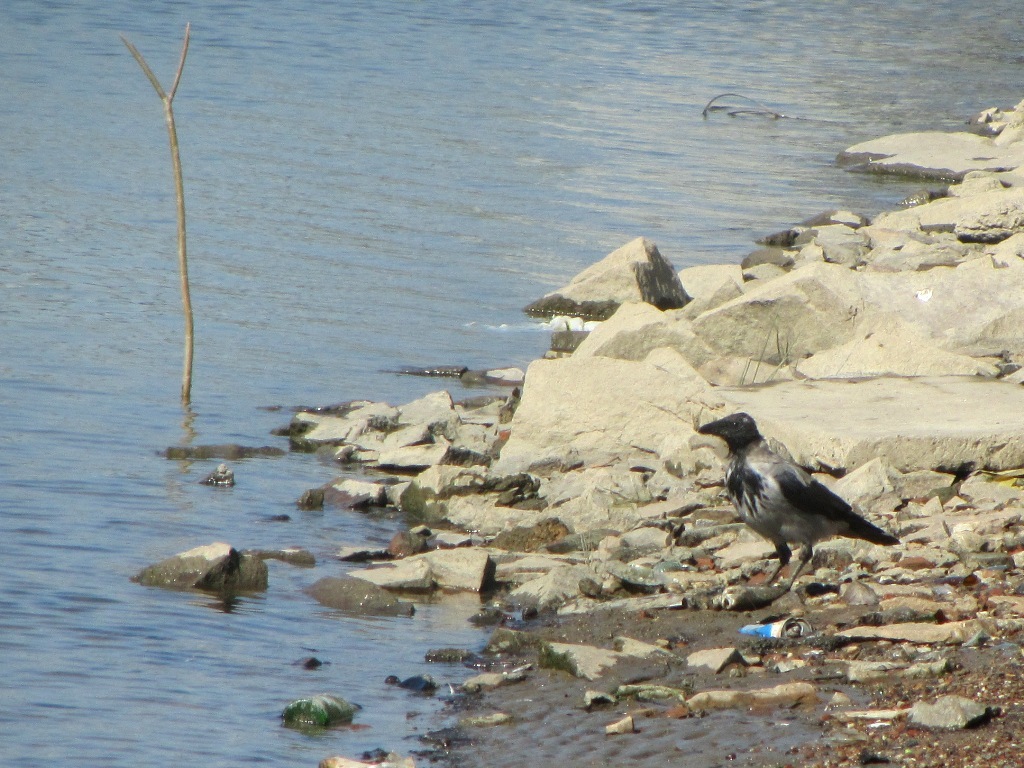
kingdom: Animalia
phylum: Chordata
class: Aves
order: Passeriformes
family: Corvidae
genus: Corvus
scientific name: Corvus cornix
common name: Hooded crow
